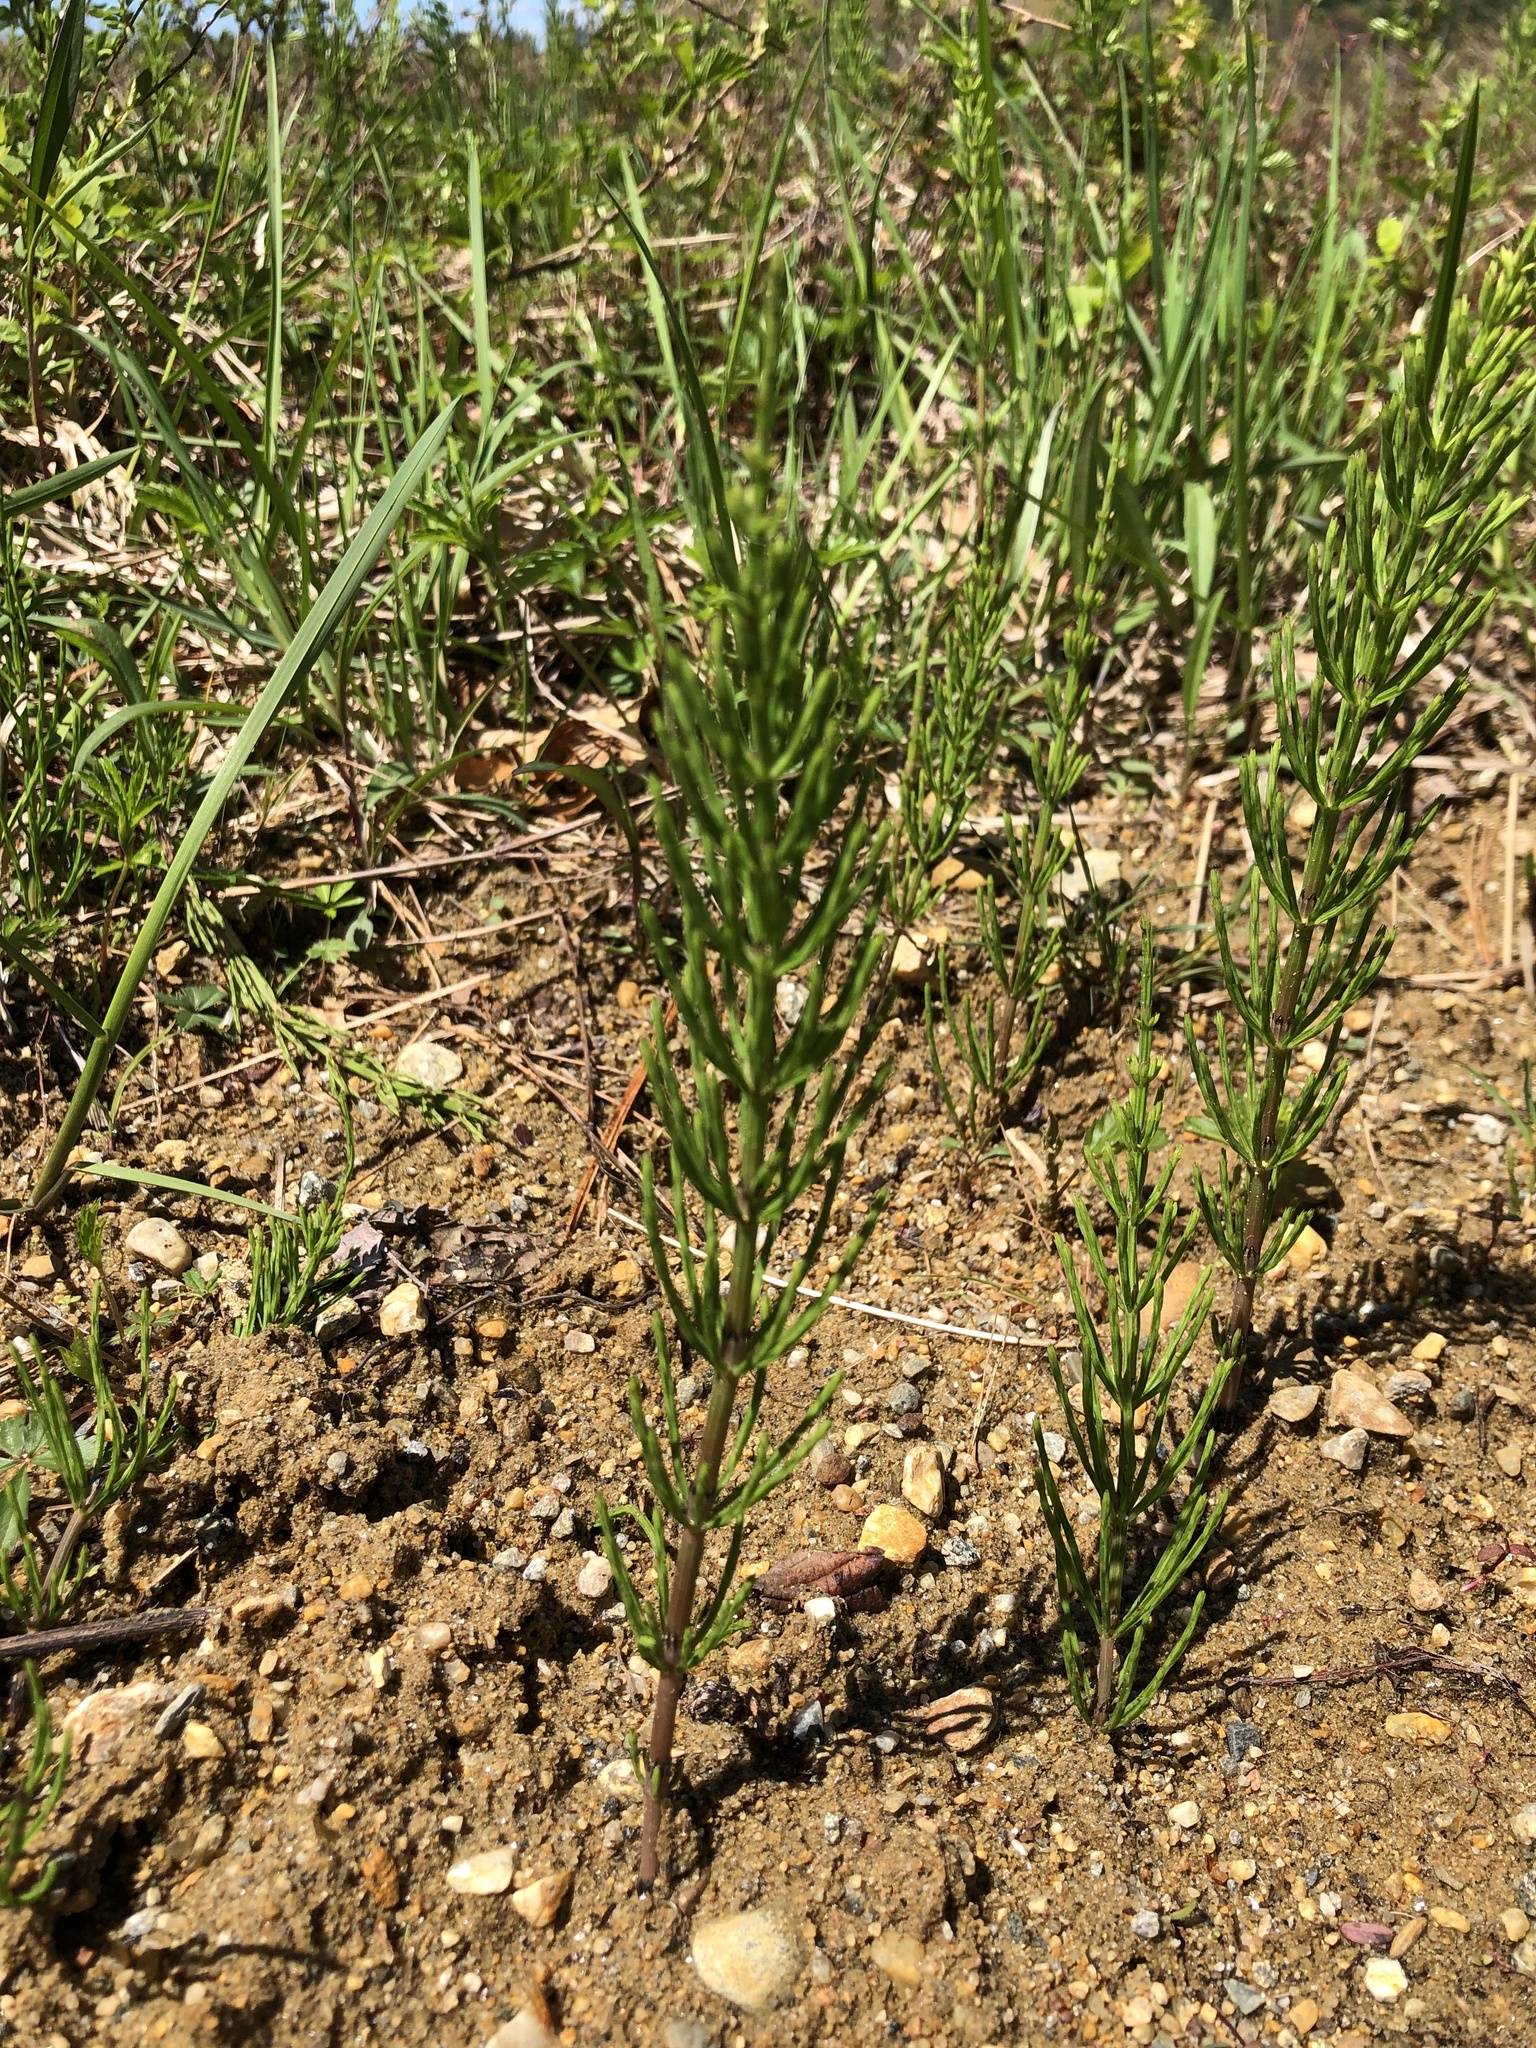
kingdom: Plantae
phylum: Tracheophyta
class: Polypodiopsida
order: Equisetales
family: Equisetaceae
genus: Equisetum
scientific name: Equisetum arvense
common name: Field horsetail
